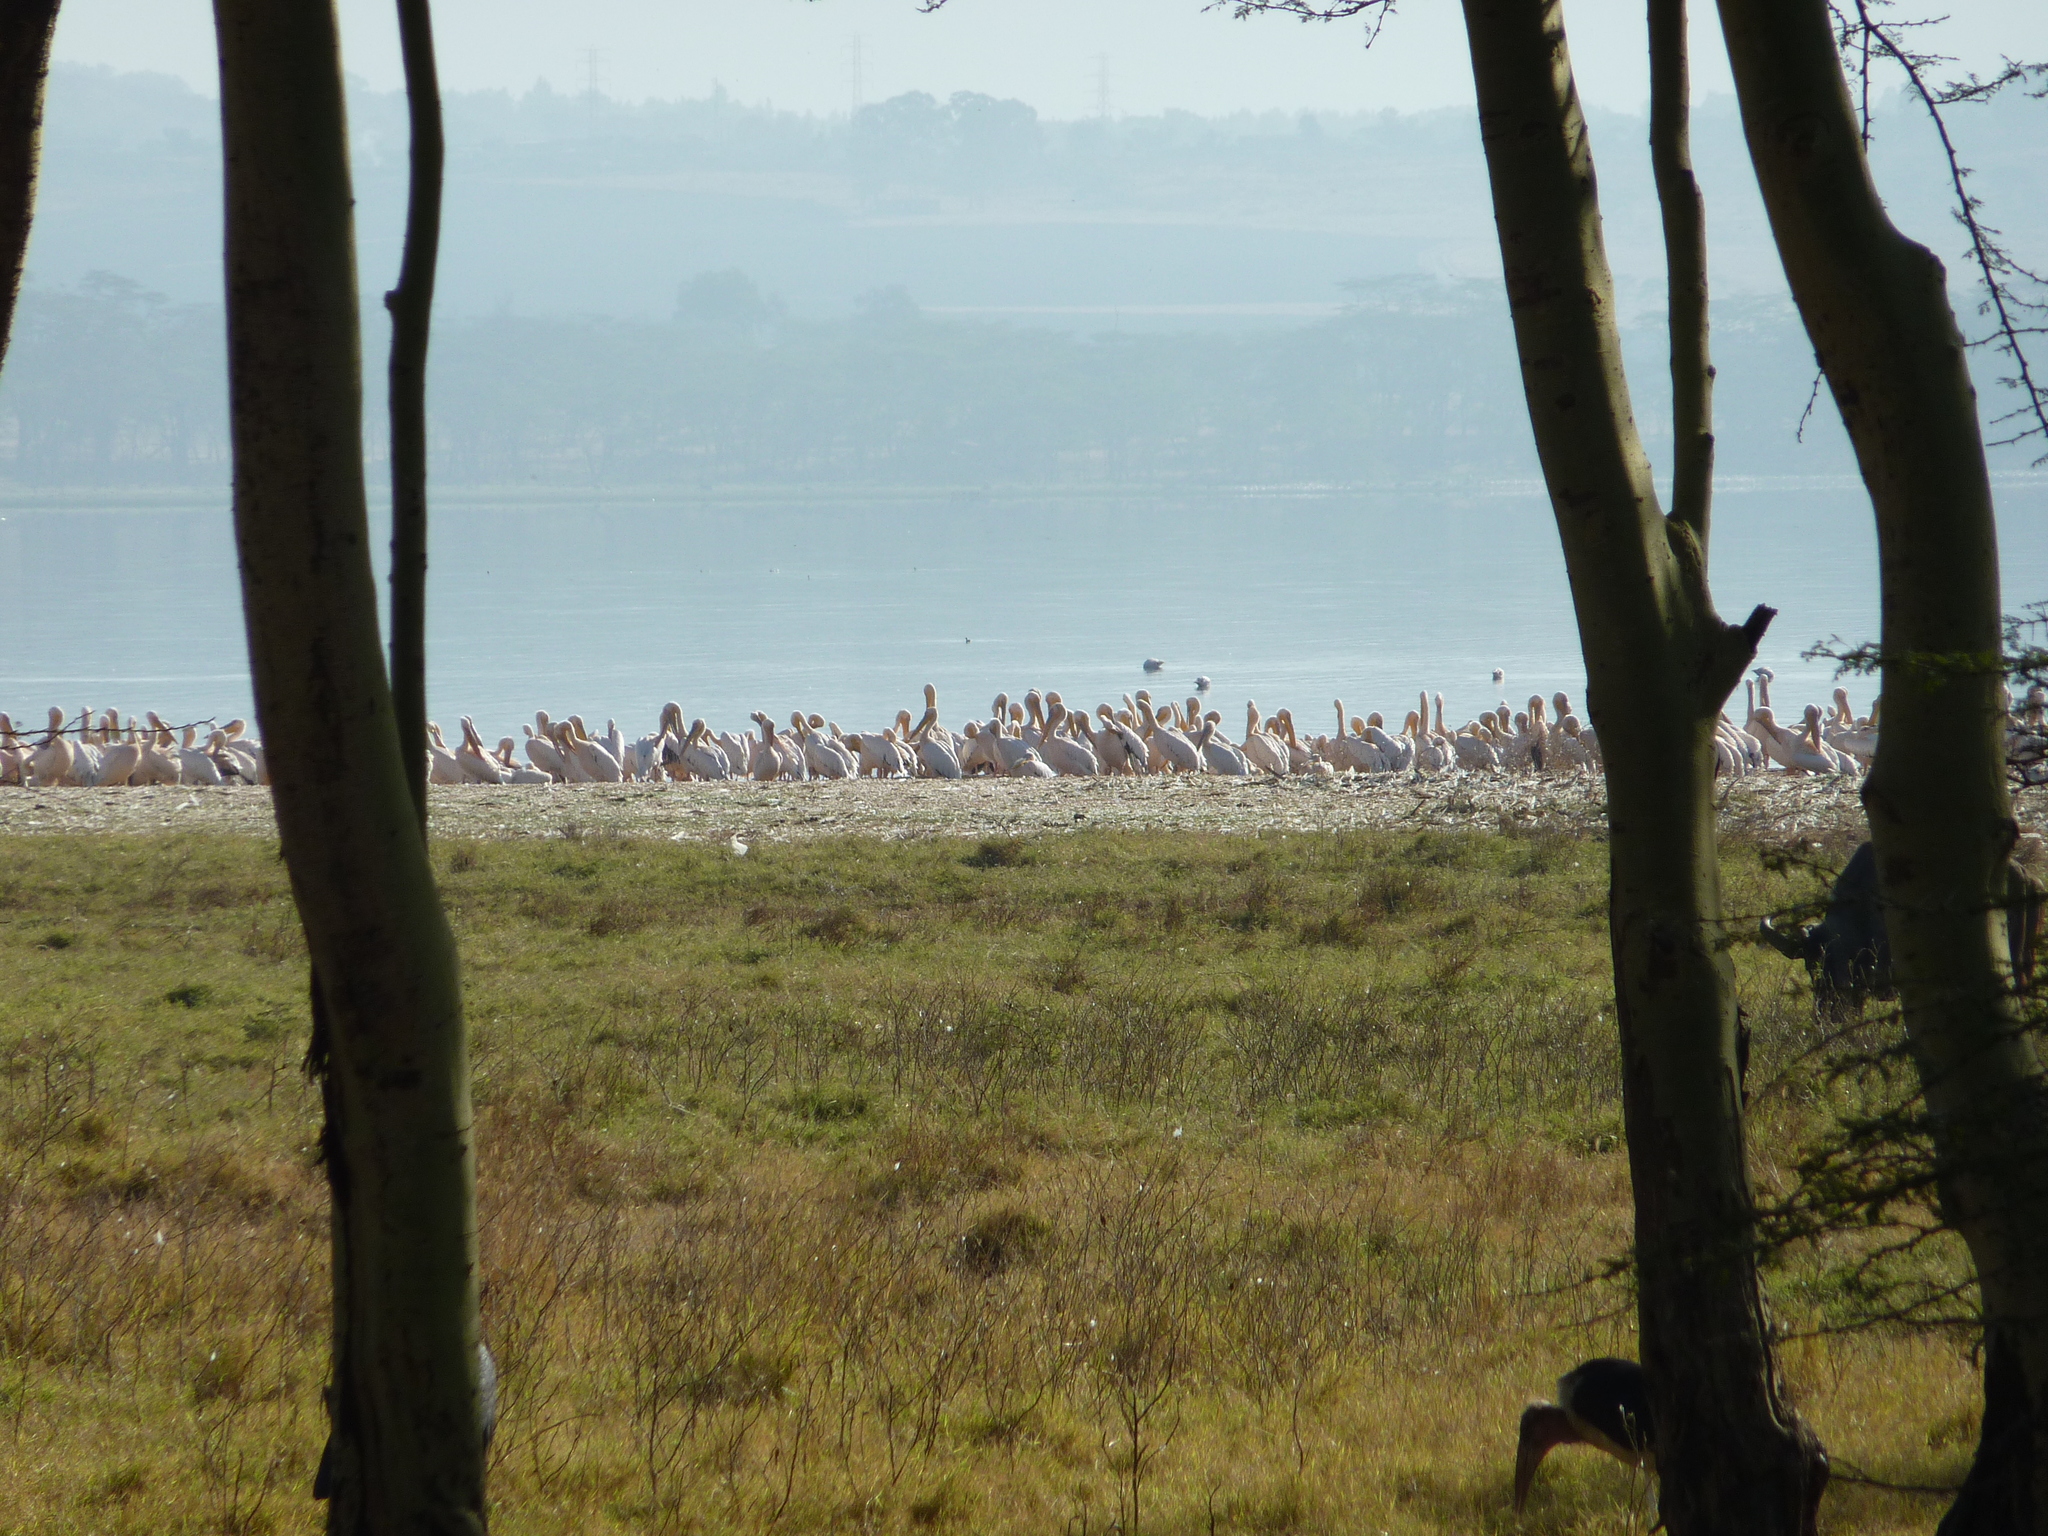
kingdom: Animalia
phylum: Chordata
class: Aves
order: Pelecaniformes
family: Pelecanidae
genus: Pelecanus
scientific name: Pelecanus onocrotalus
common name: Great white pelican
